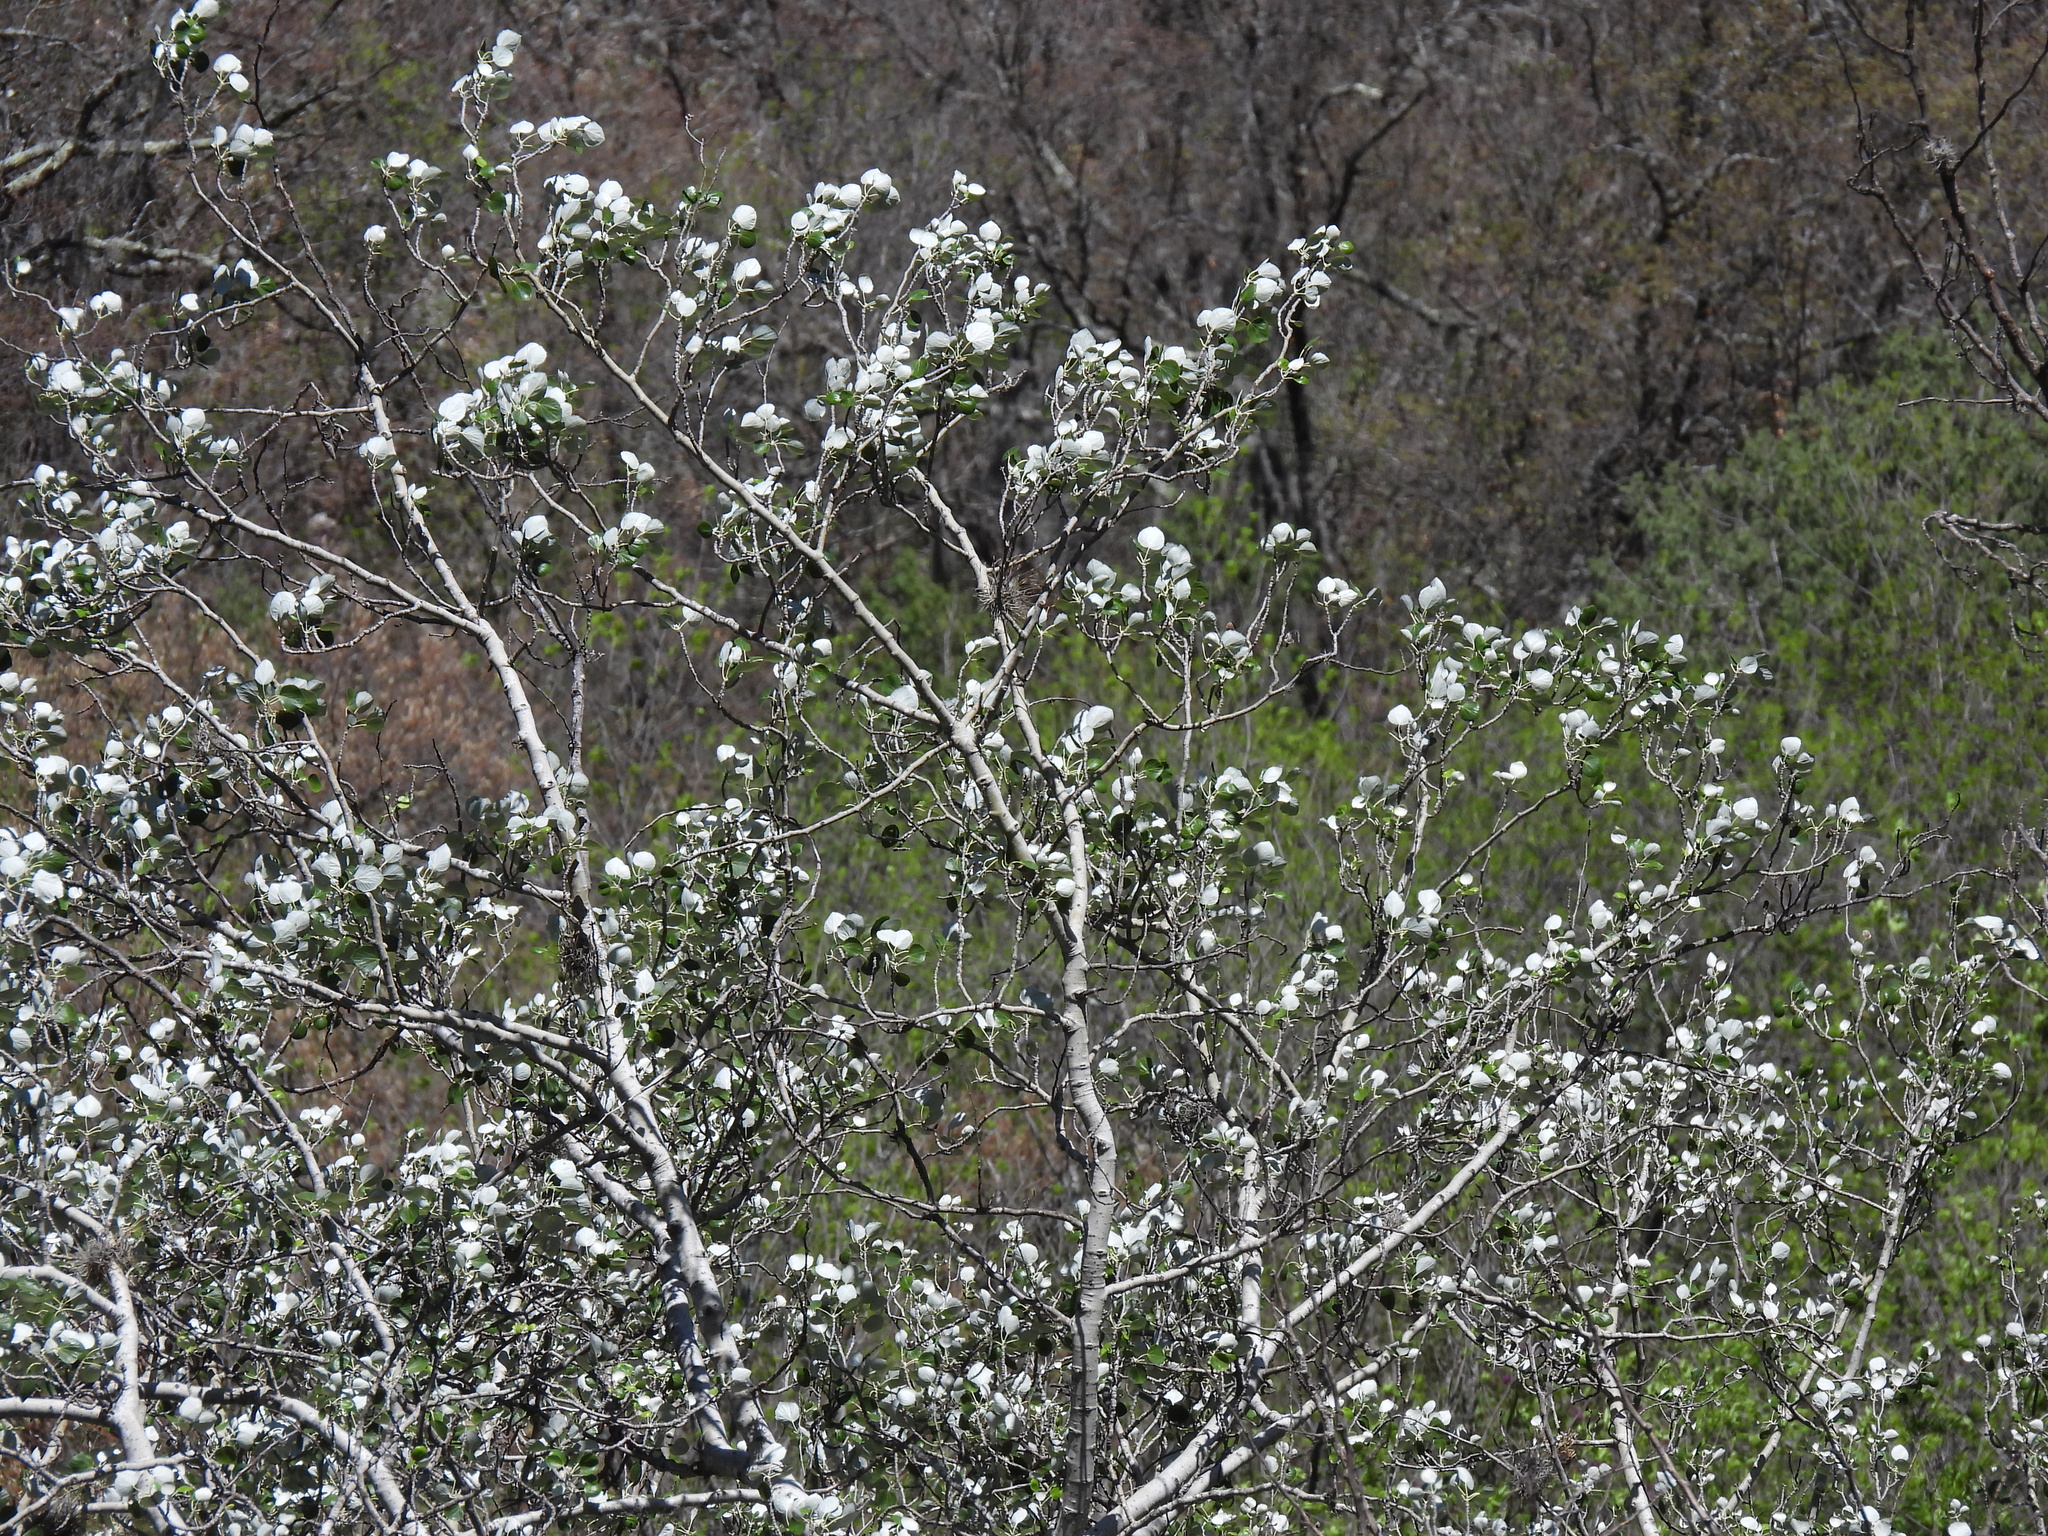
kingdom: Plantae
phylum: Tracheophyta
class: Magnoliopsida
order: Malpighiales
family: Salicaceae
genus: Populus
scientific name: Populus alba
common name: White poplar
